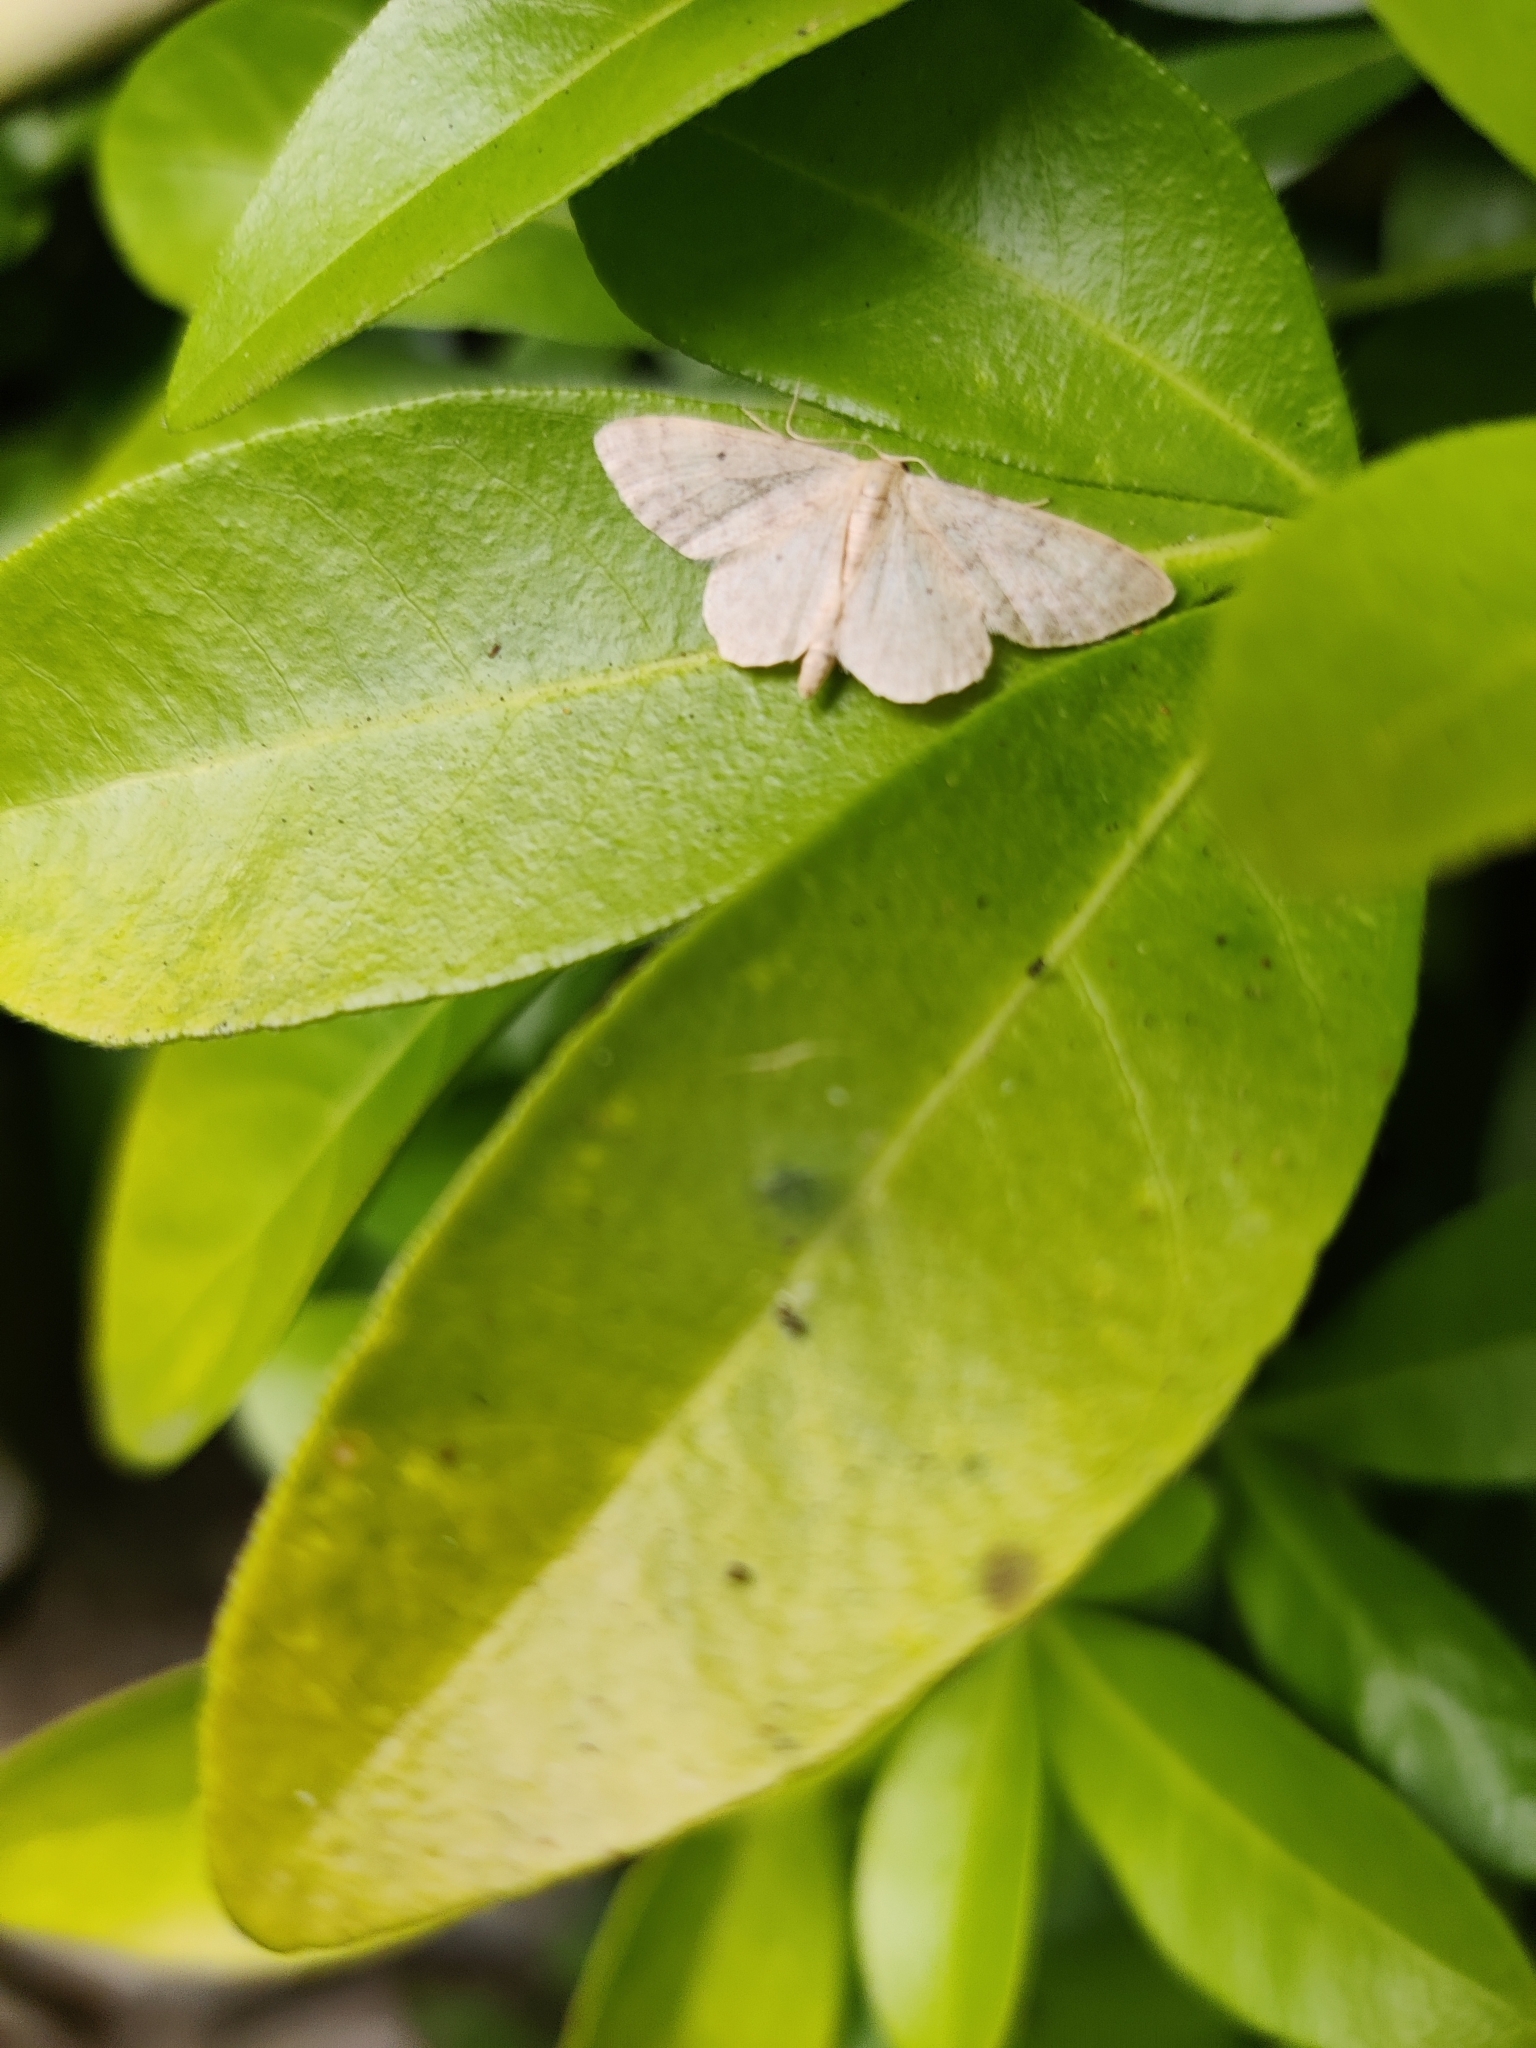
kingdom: Animalia
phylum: Arthropoda
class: Insecta
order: Lepidoptera
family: Geometridae
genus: Idaea
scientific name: Idaea biselata
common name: Small fan-footed wave
